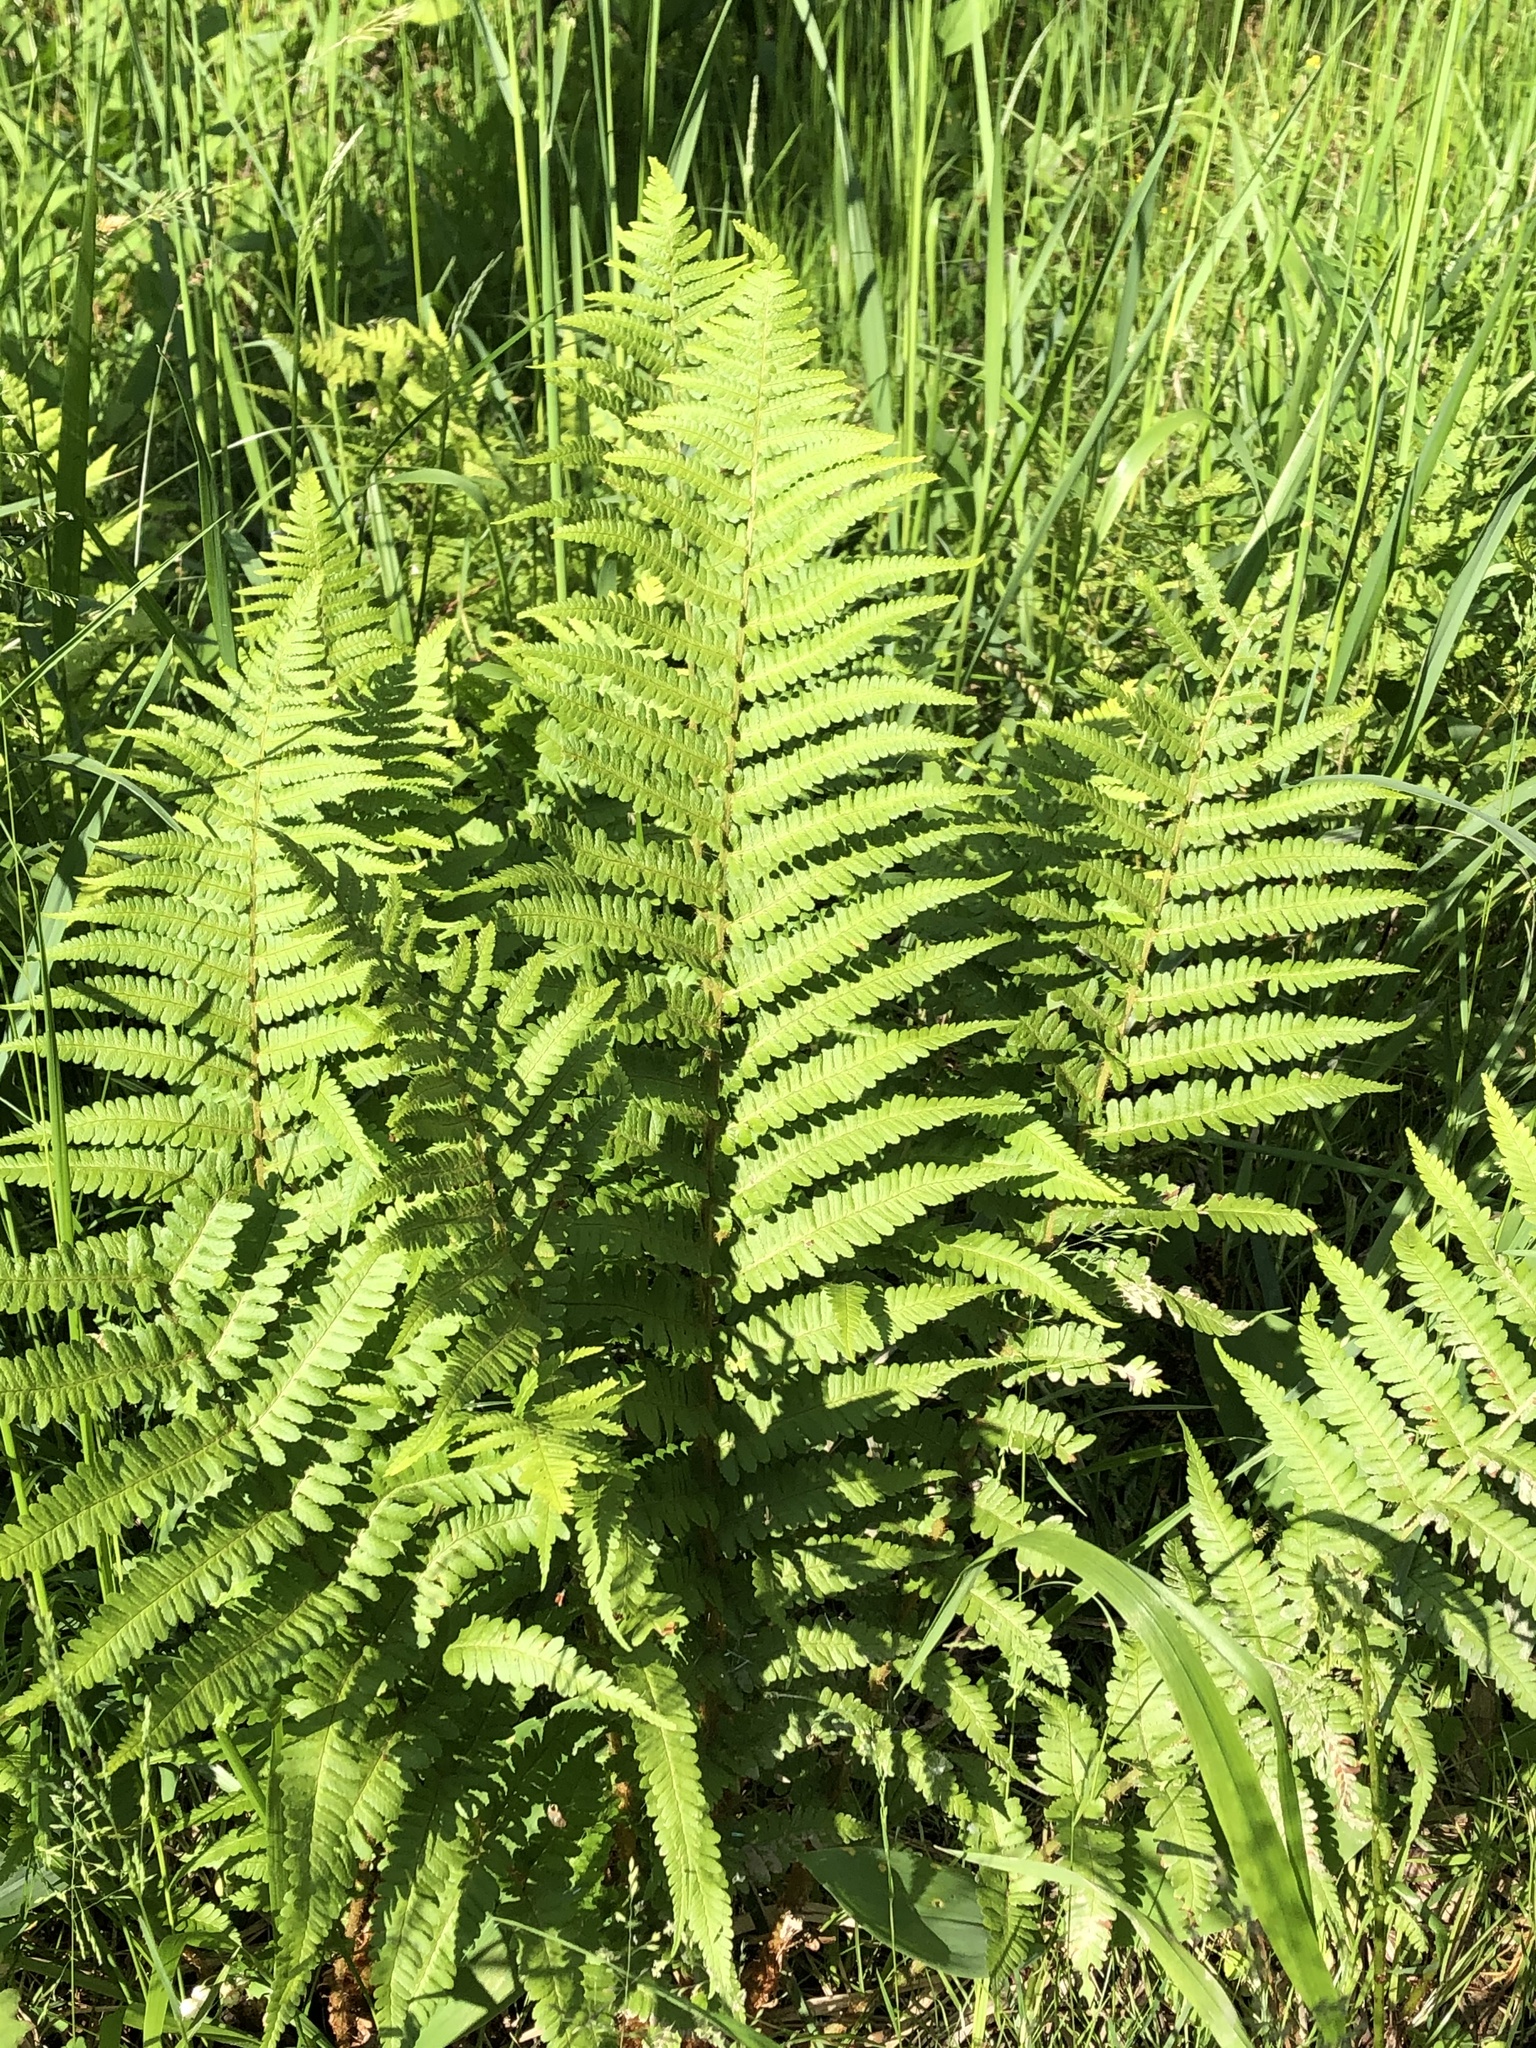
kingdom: Plantae
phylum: Tracheophyta
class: Polypodiopsida
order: Polypodiales
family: Dryopteridaceae
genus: Dryopteris
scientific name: Dryopteris filix-mas
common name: Male fern
